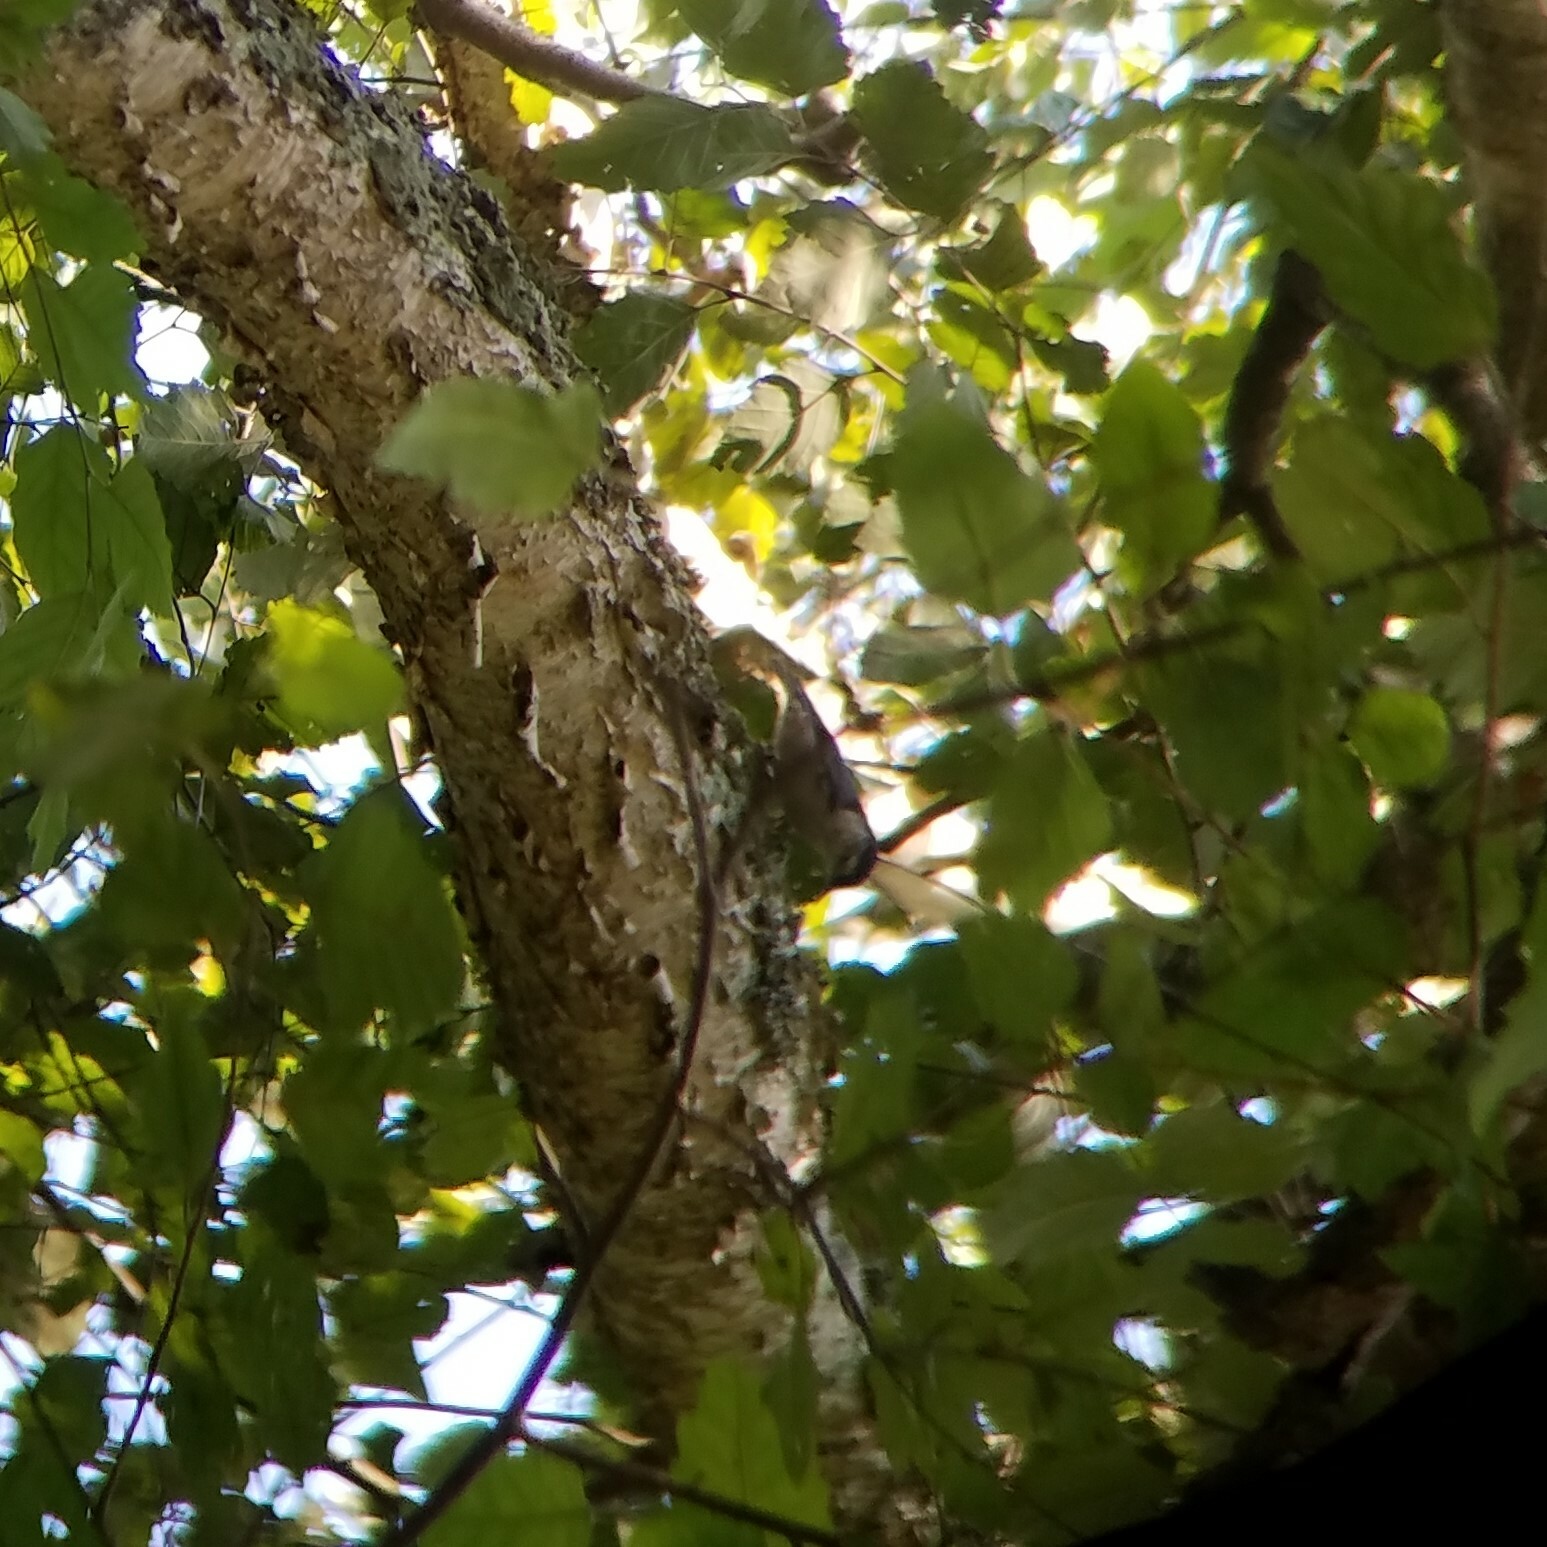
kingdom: Animalia
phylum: Chordata
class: Aves
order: Passeriformes
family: Sittidae
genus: Sitta
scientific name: Sitta carolinensis
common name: White-breasted nuthatch
